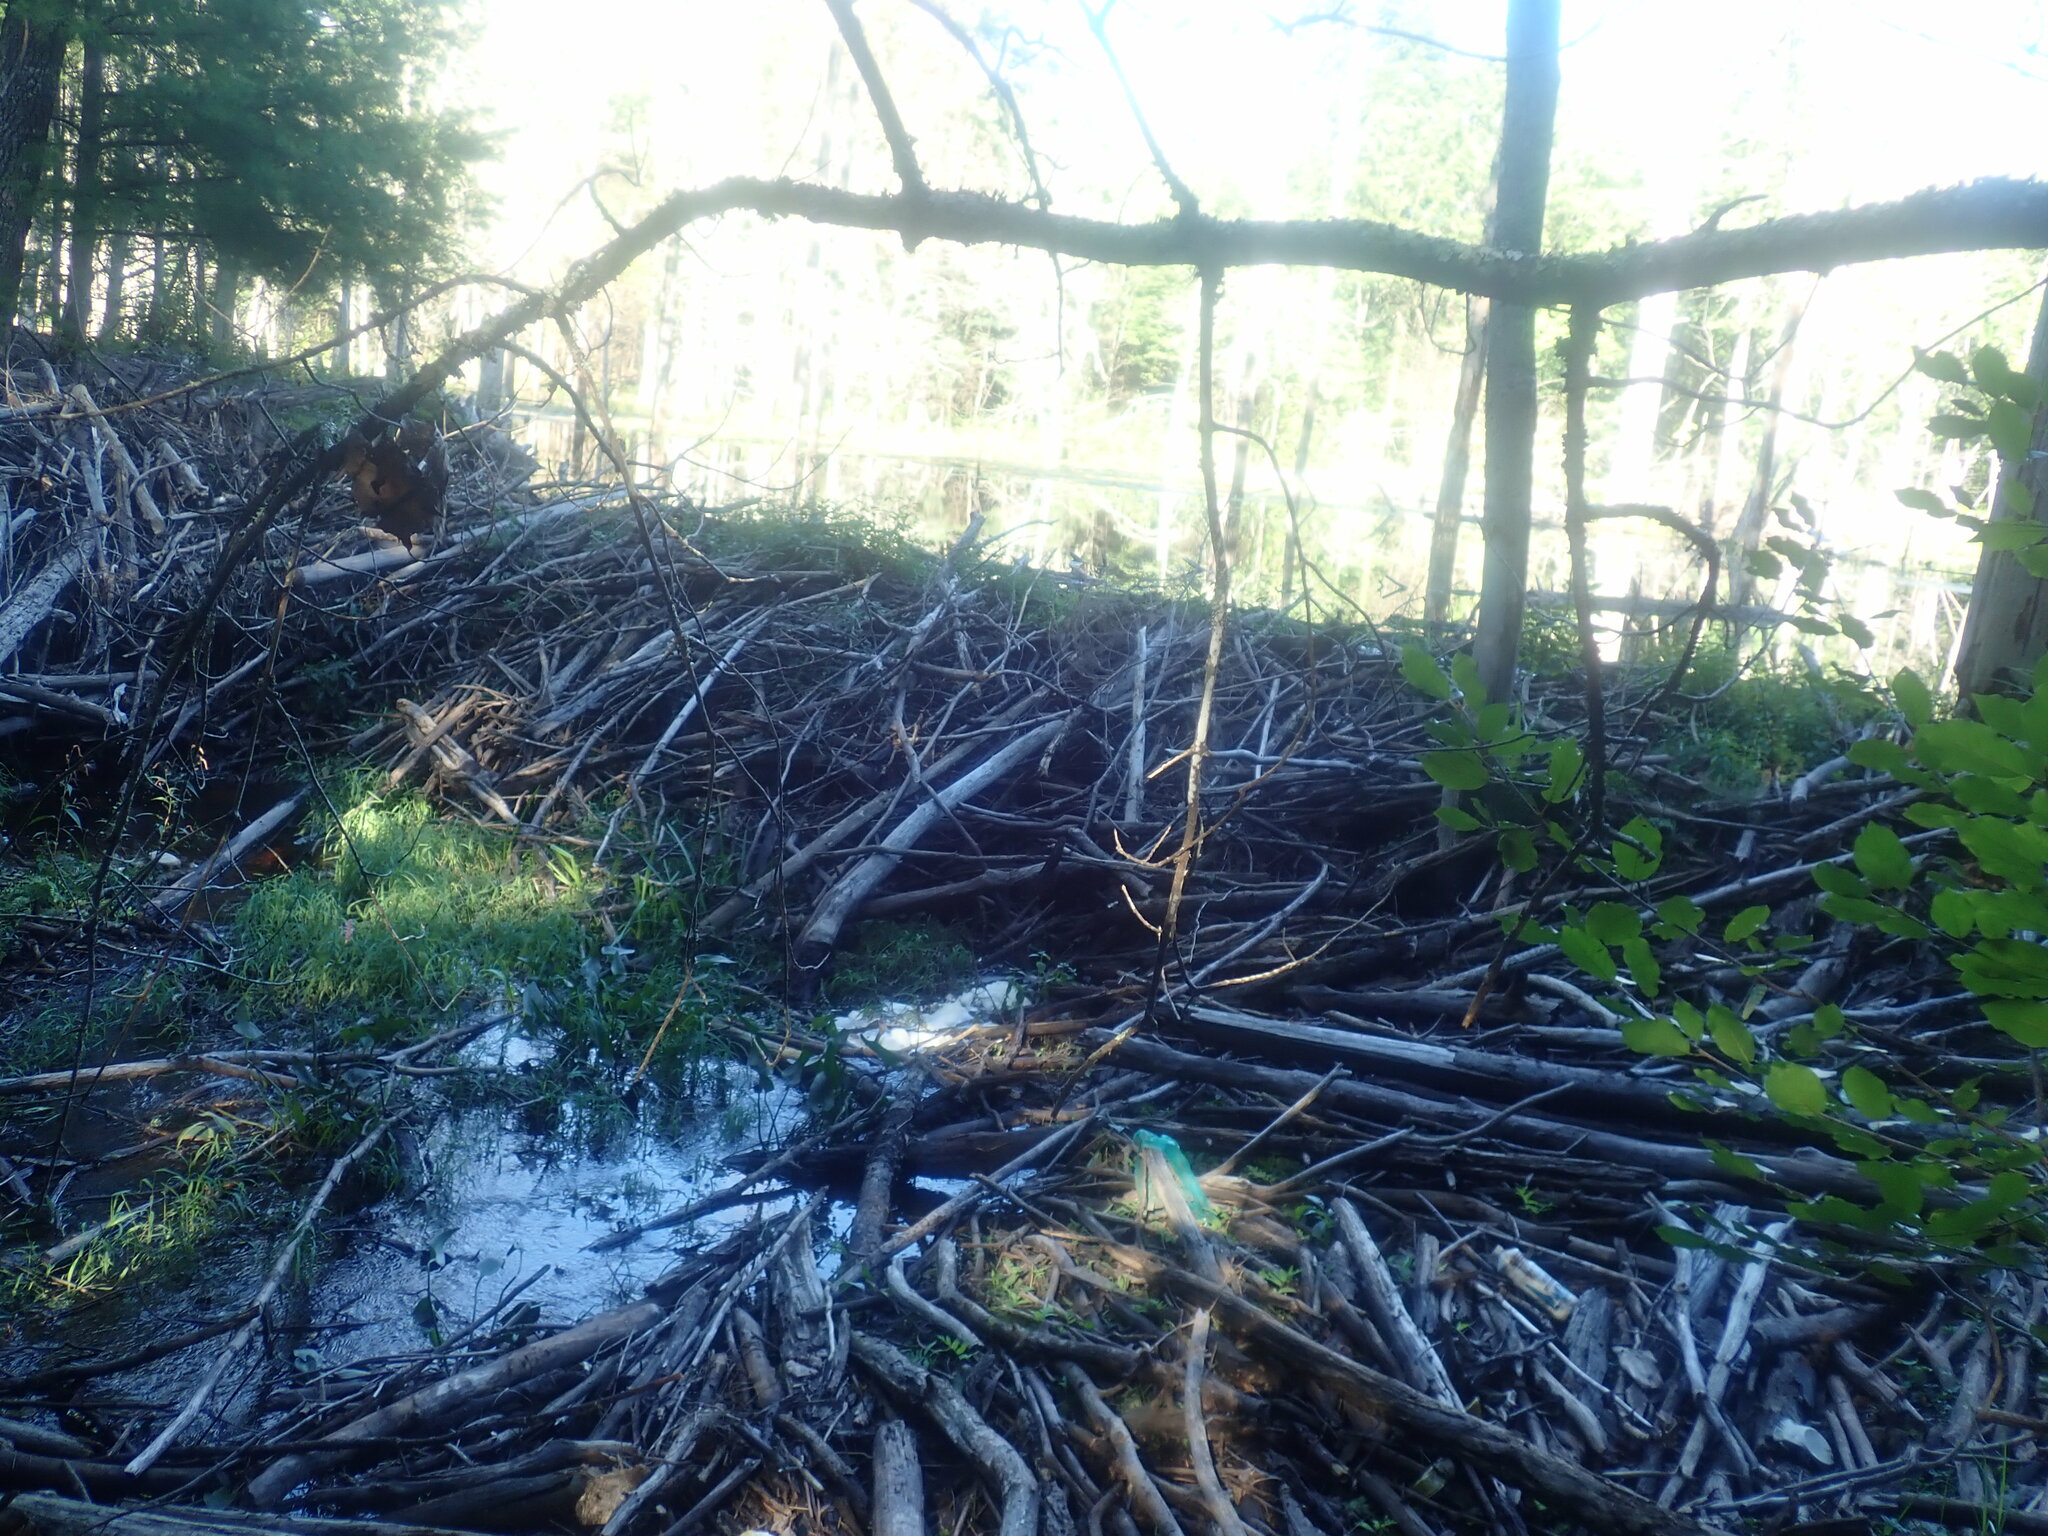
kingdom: Animalia
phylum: Chordata
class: Mammalia
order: Rodentia
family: Castoridae
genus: Castor
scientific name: Castor canadensis
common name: American beaver
